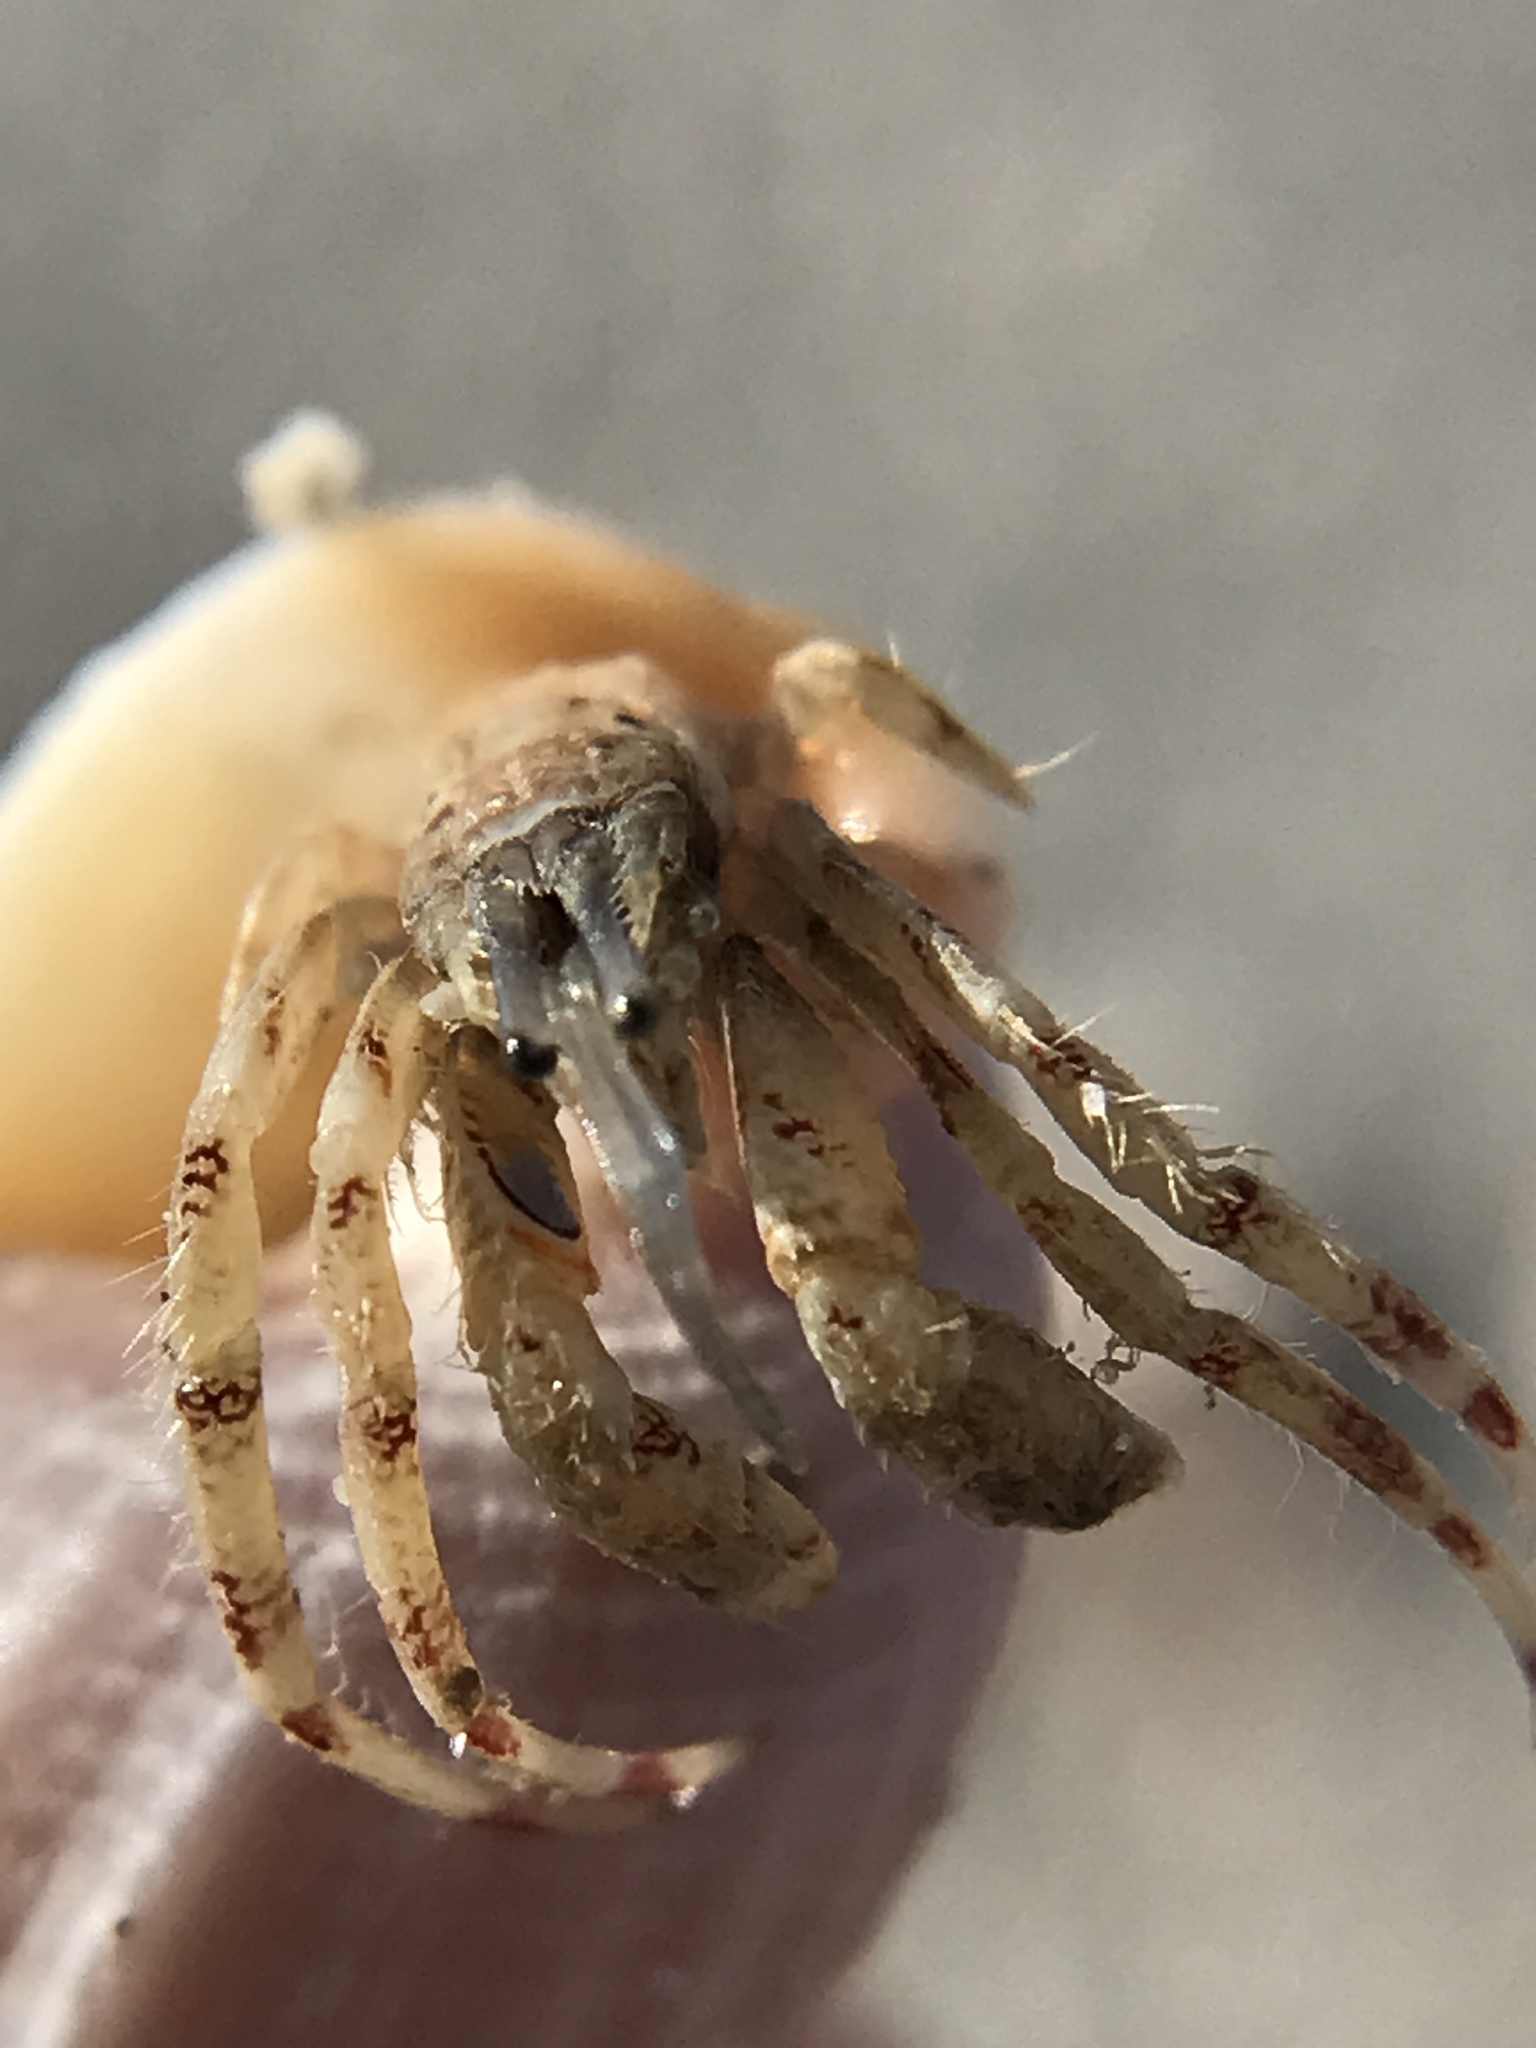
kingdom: Animalia
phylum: Arthropoda
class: Malacostraca
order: Decapoda
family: Diogenidae
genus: Areopaguristes
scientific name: Areopaguristes hummi
